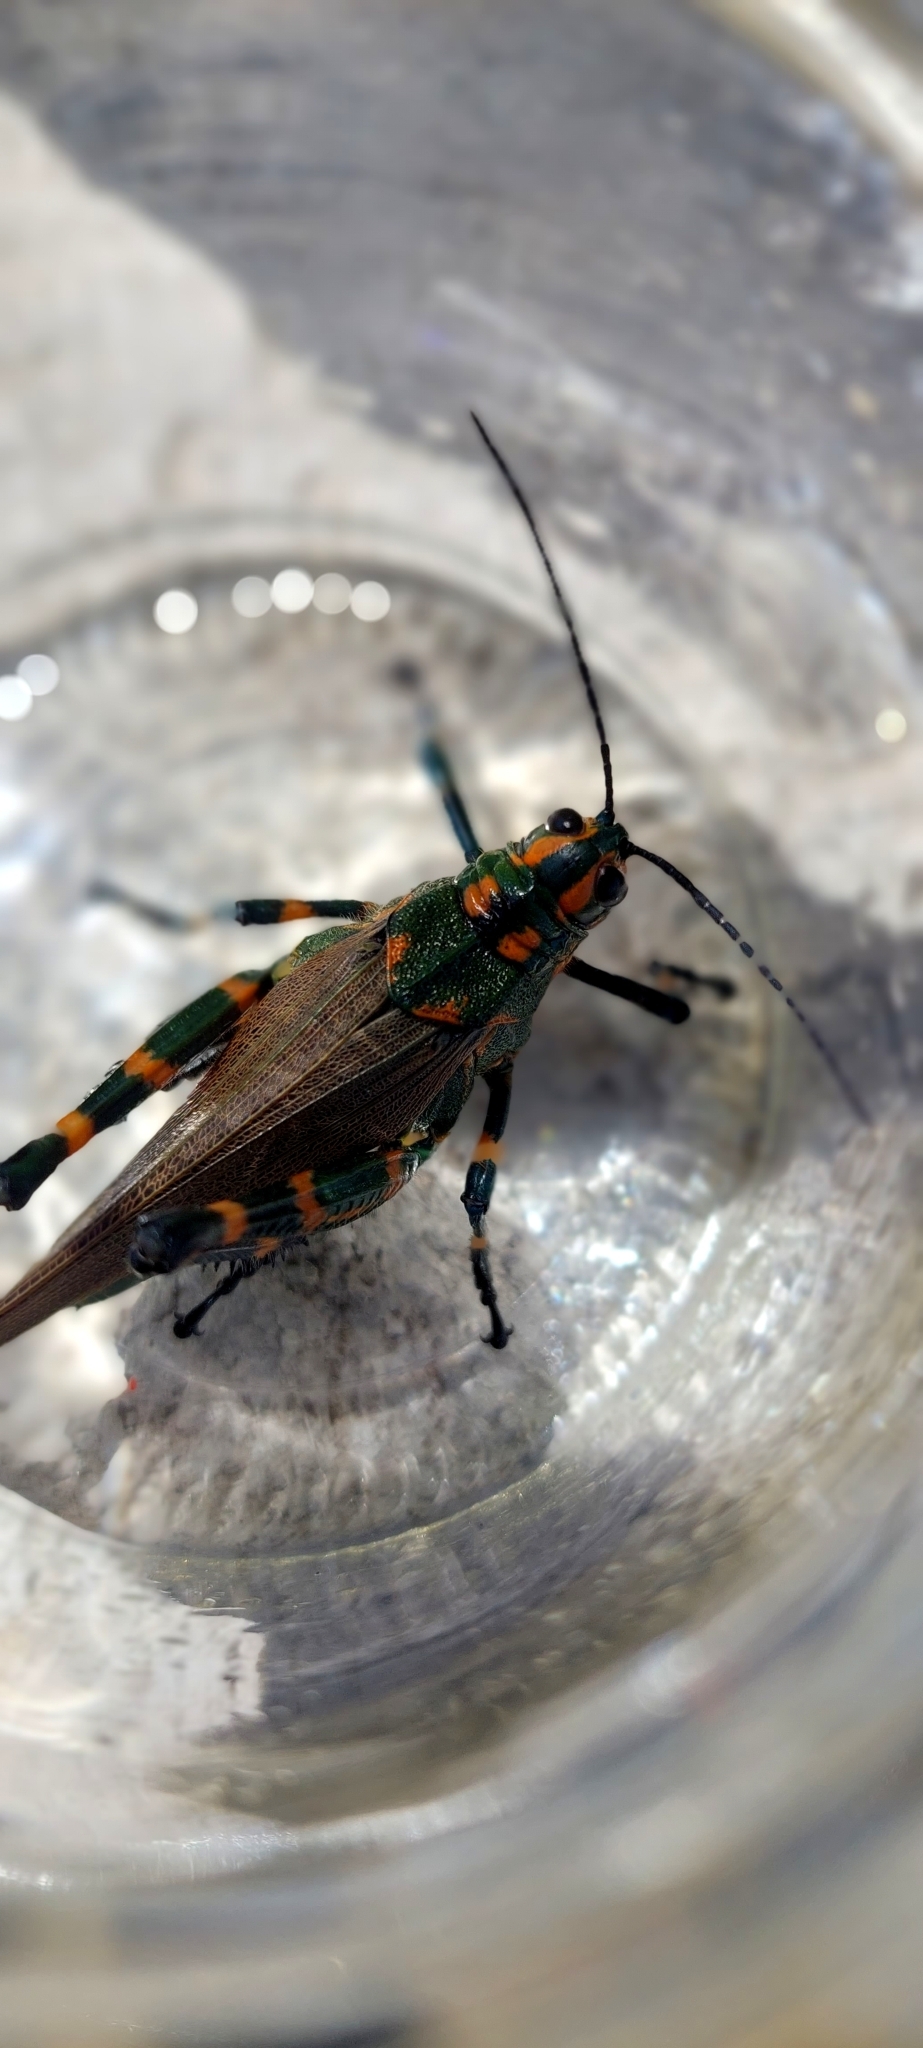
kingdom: Animalia
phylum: Arthropoda
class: Insecta
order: Orthoptera
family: Romaleidae
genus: Chromacris
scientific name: Chromacris speciosa
